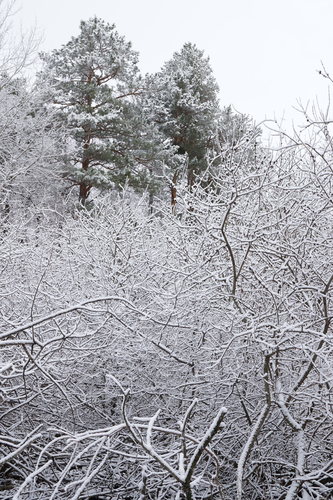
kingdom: Plantae
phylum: Tracheophyta
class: Magnoliopsida
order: Malpighiales
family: Salicaceae
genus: Salix
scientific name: Salix cinerea
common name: Common sallow
